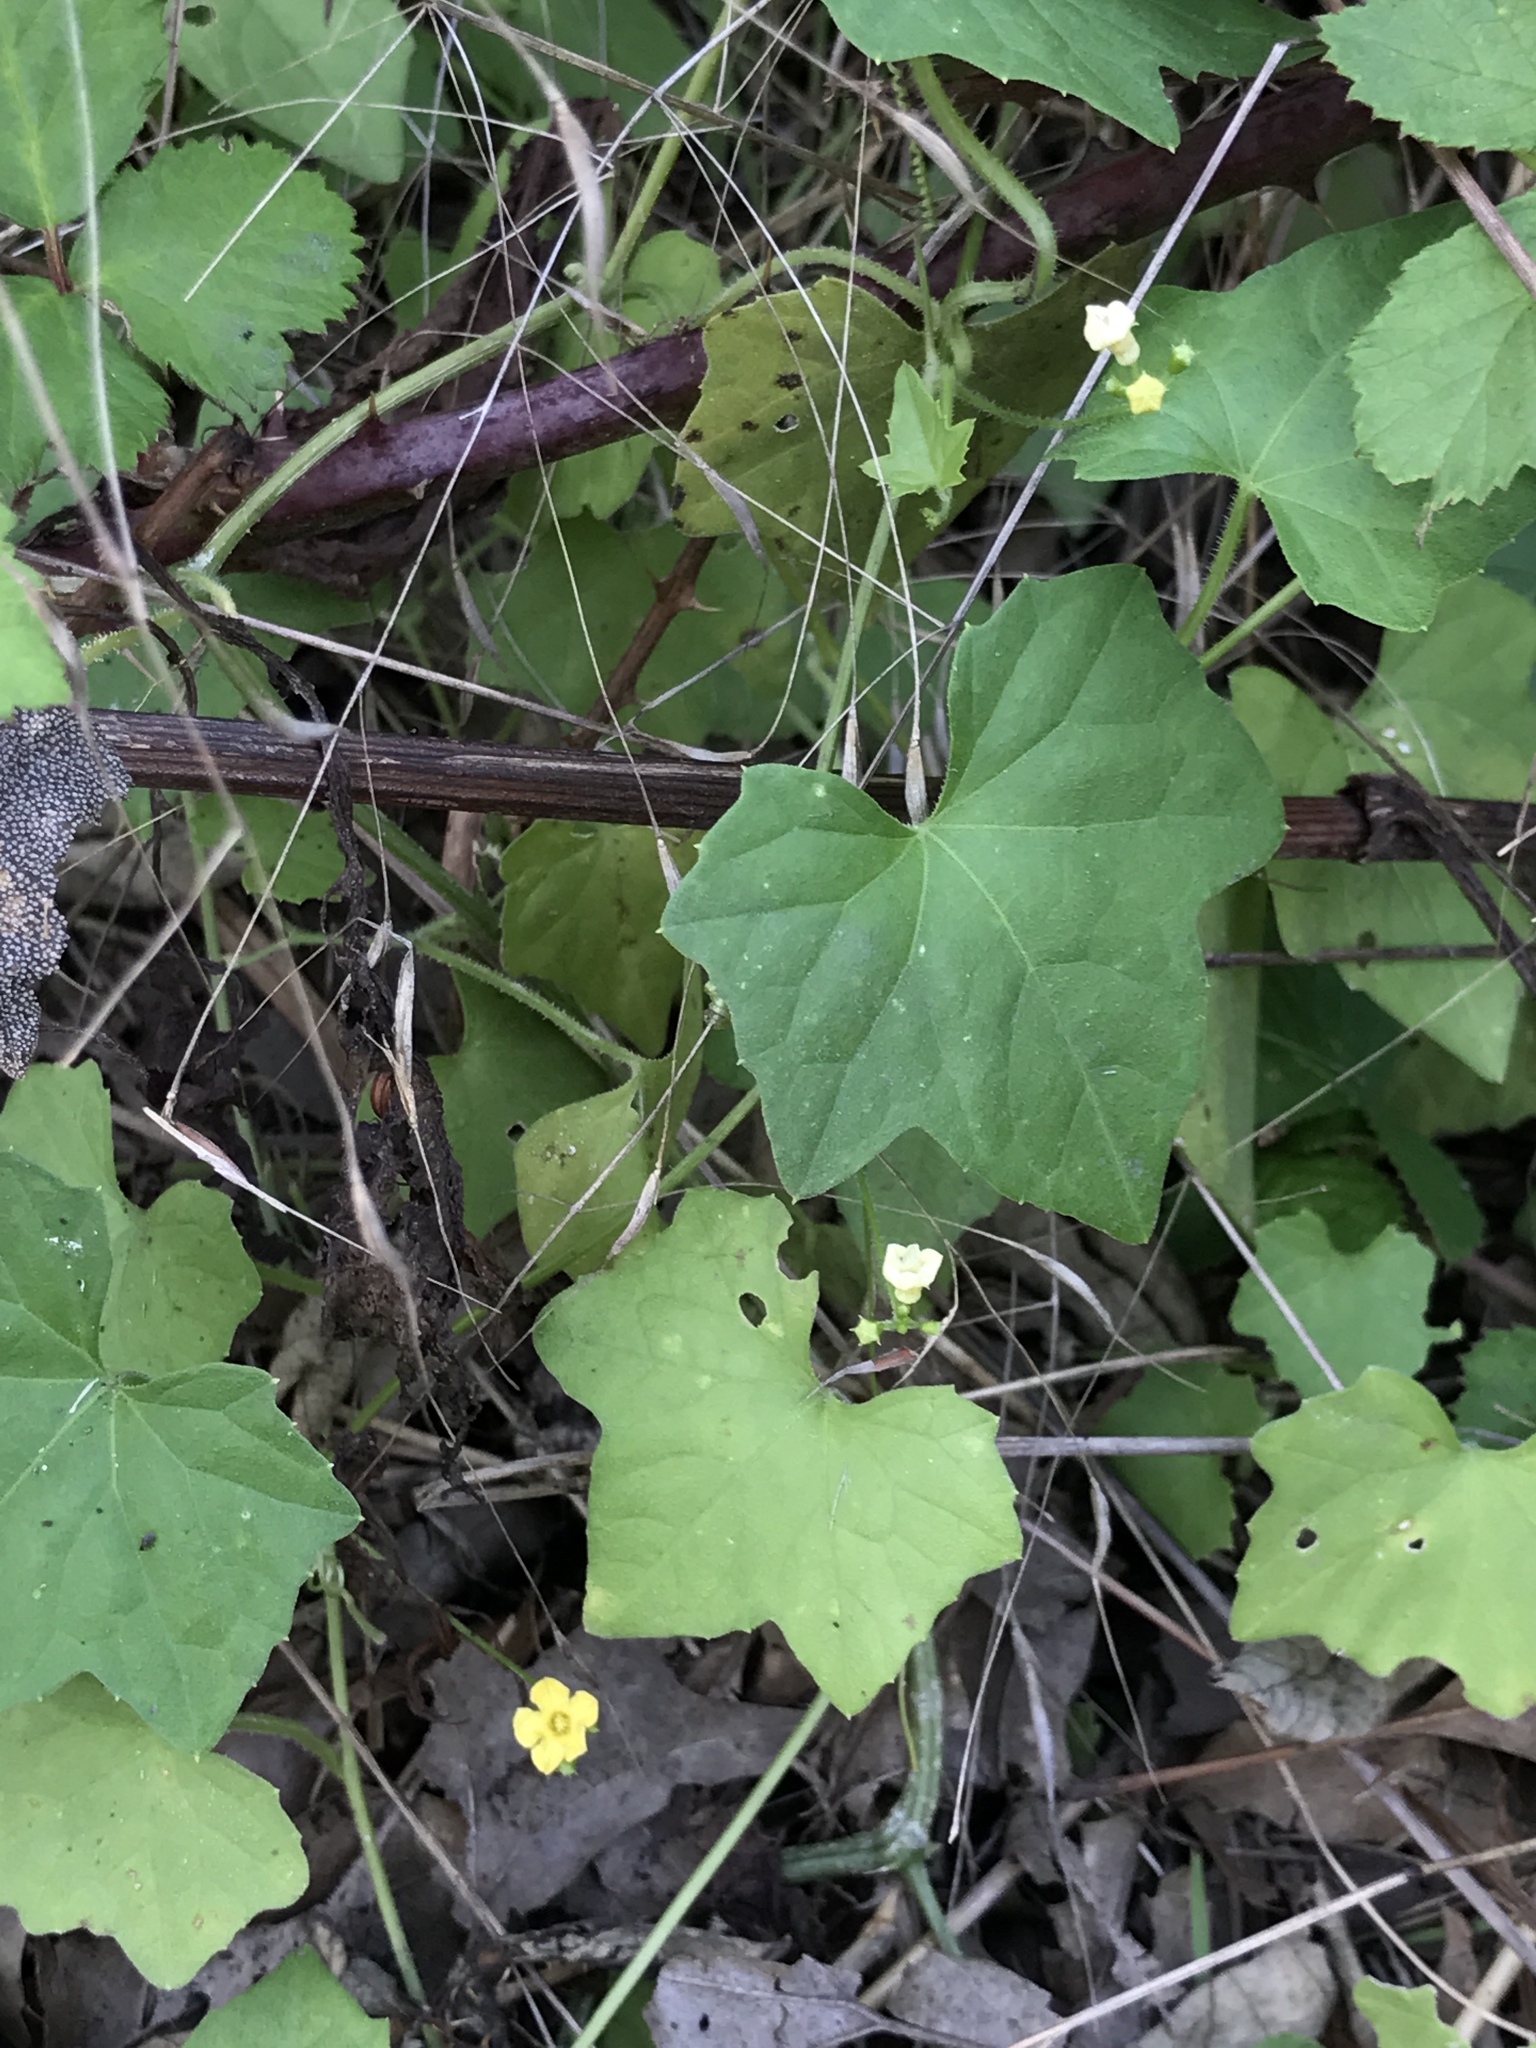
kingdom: Plantae
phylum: Tracheophyta
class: Magnoliopsida
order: Cucurbitales
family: Cucurbitaceae
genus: Melothria
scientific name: Melothria pendula
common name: Creeping-cucumber
